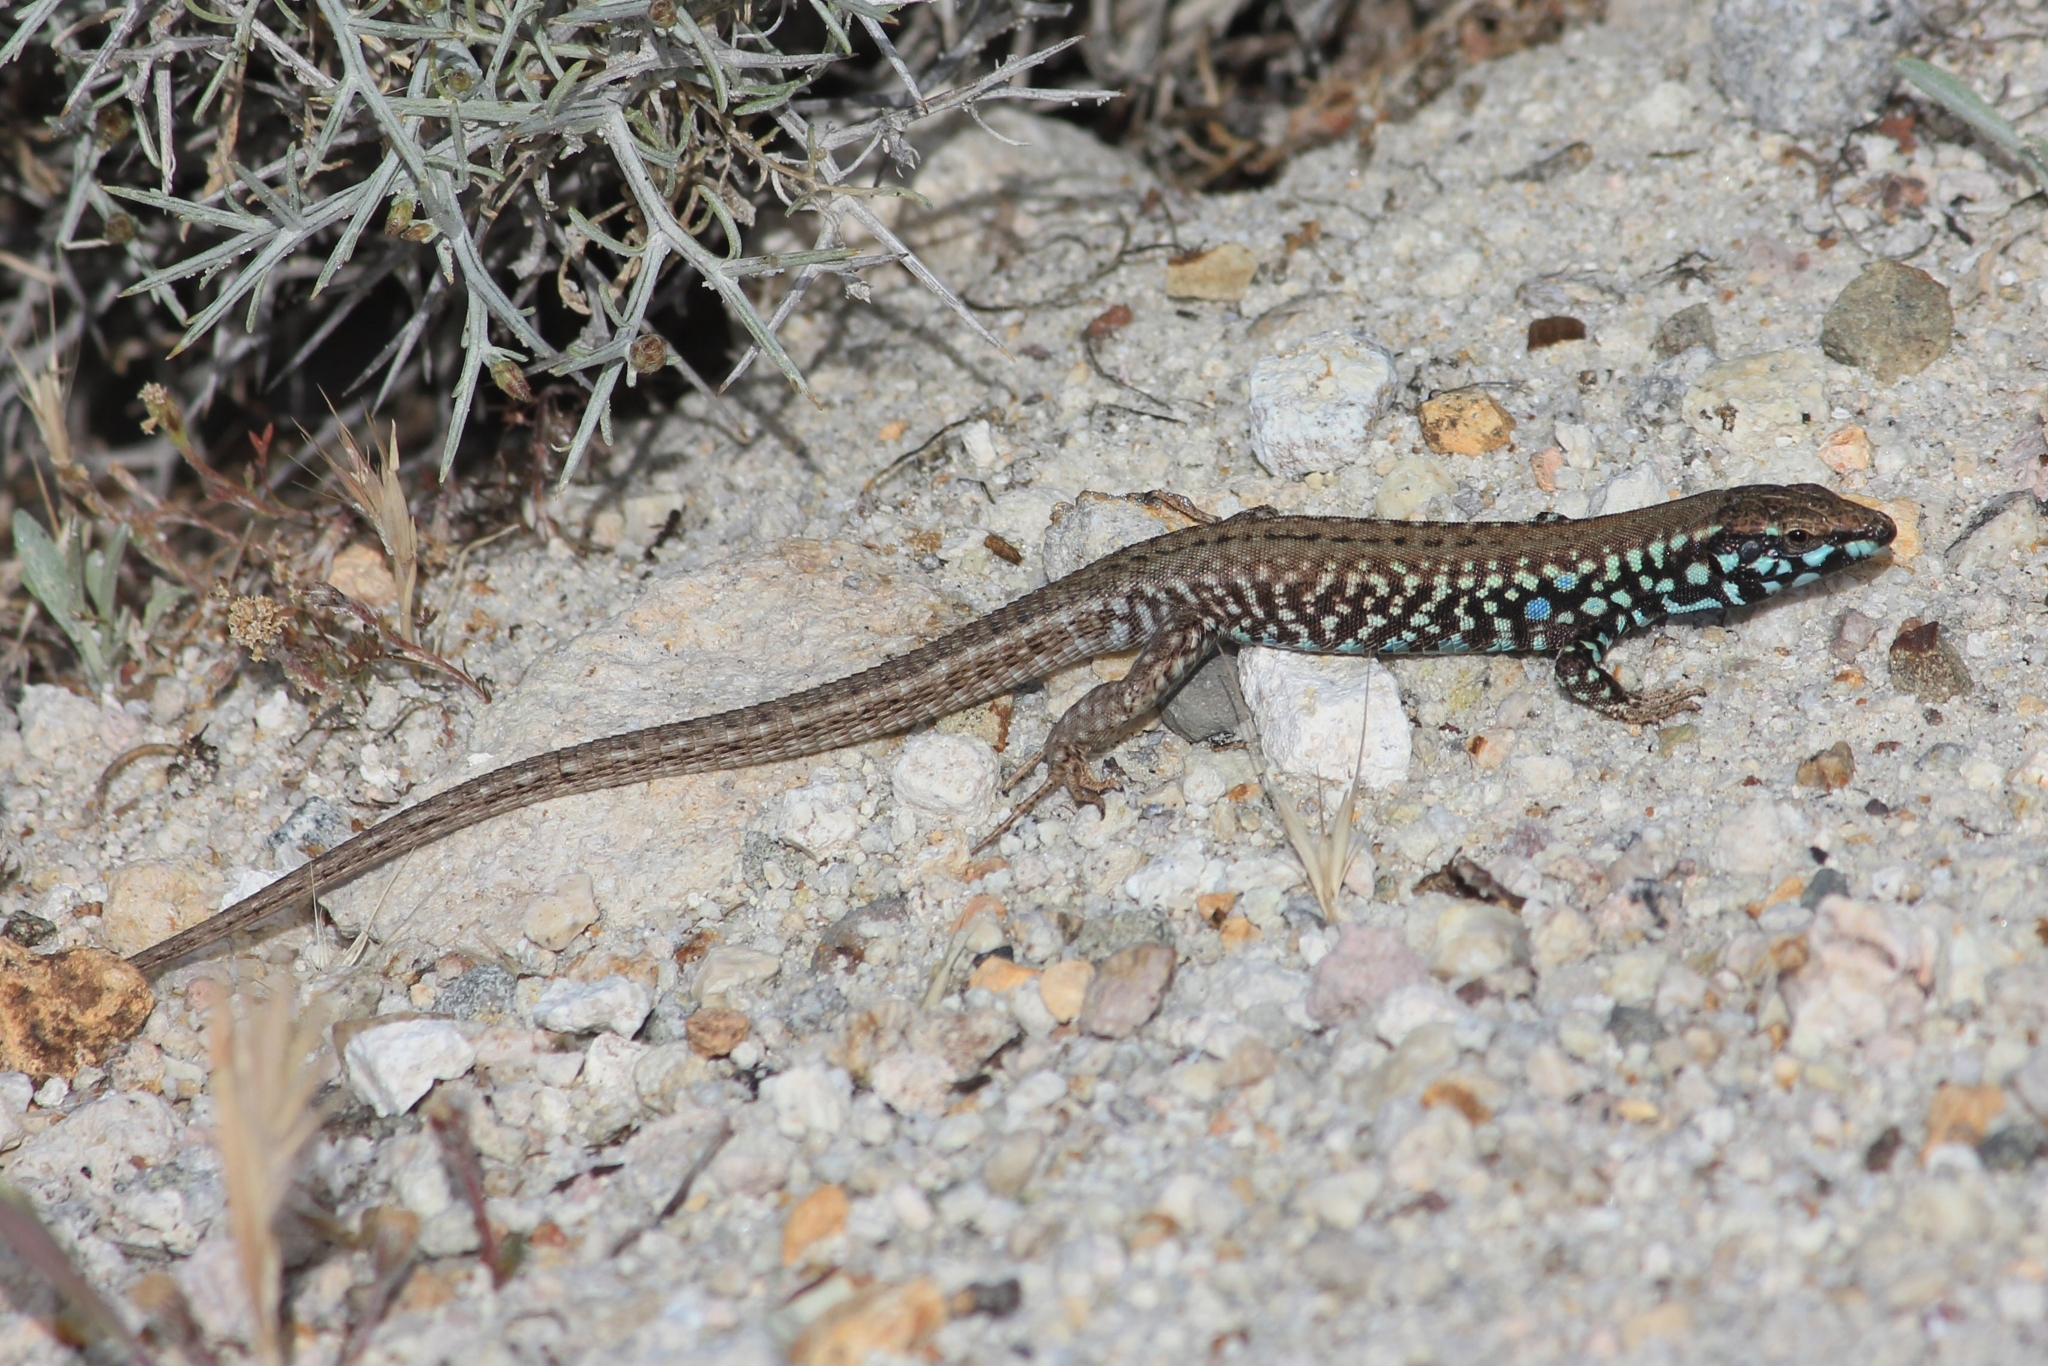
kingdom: Animalia
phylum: Chordata
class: Squamata
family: Lacertidae
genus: Podarcis
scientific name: Podarcis milensis
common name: Milos wall lizard
